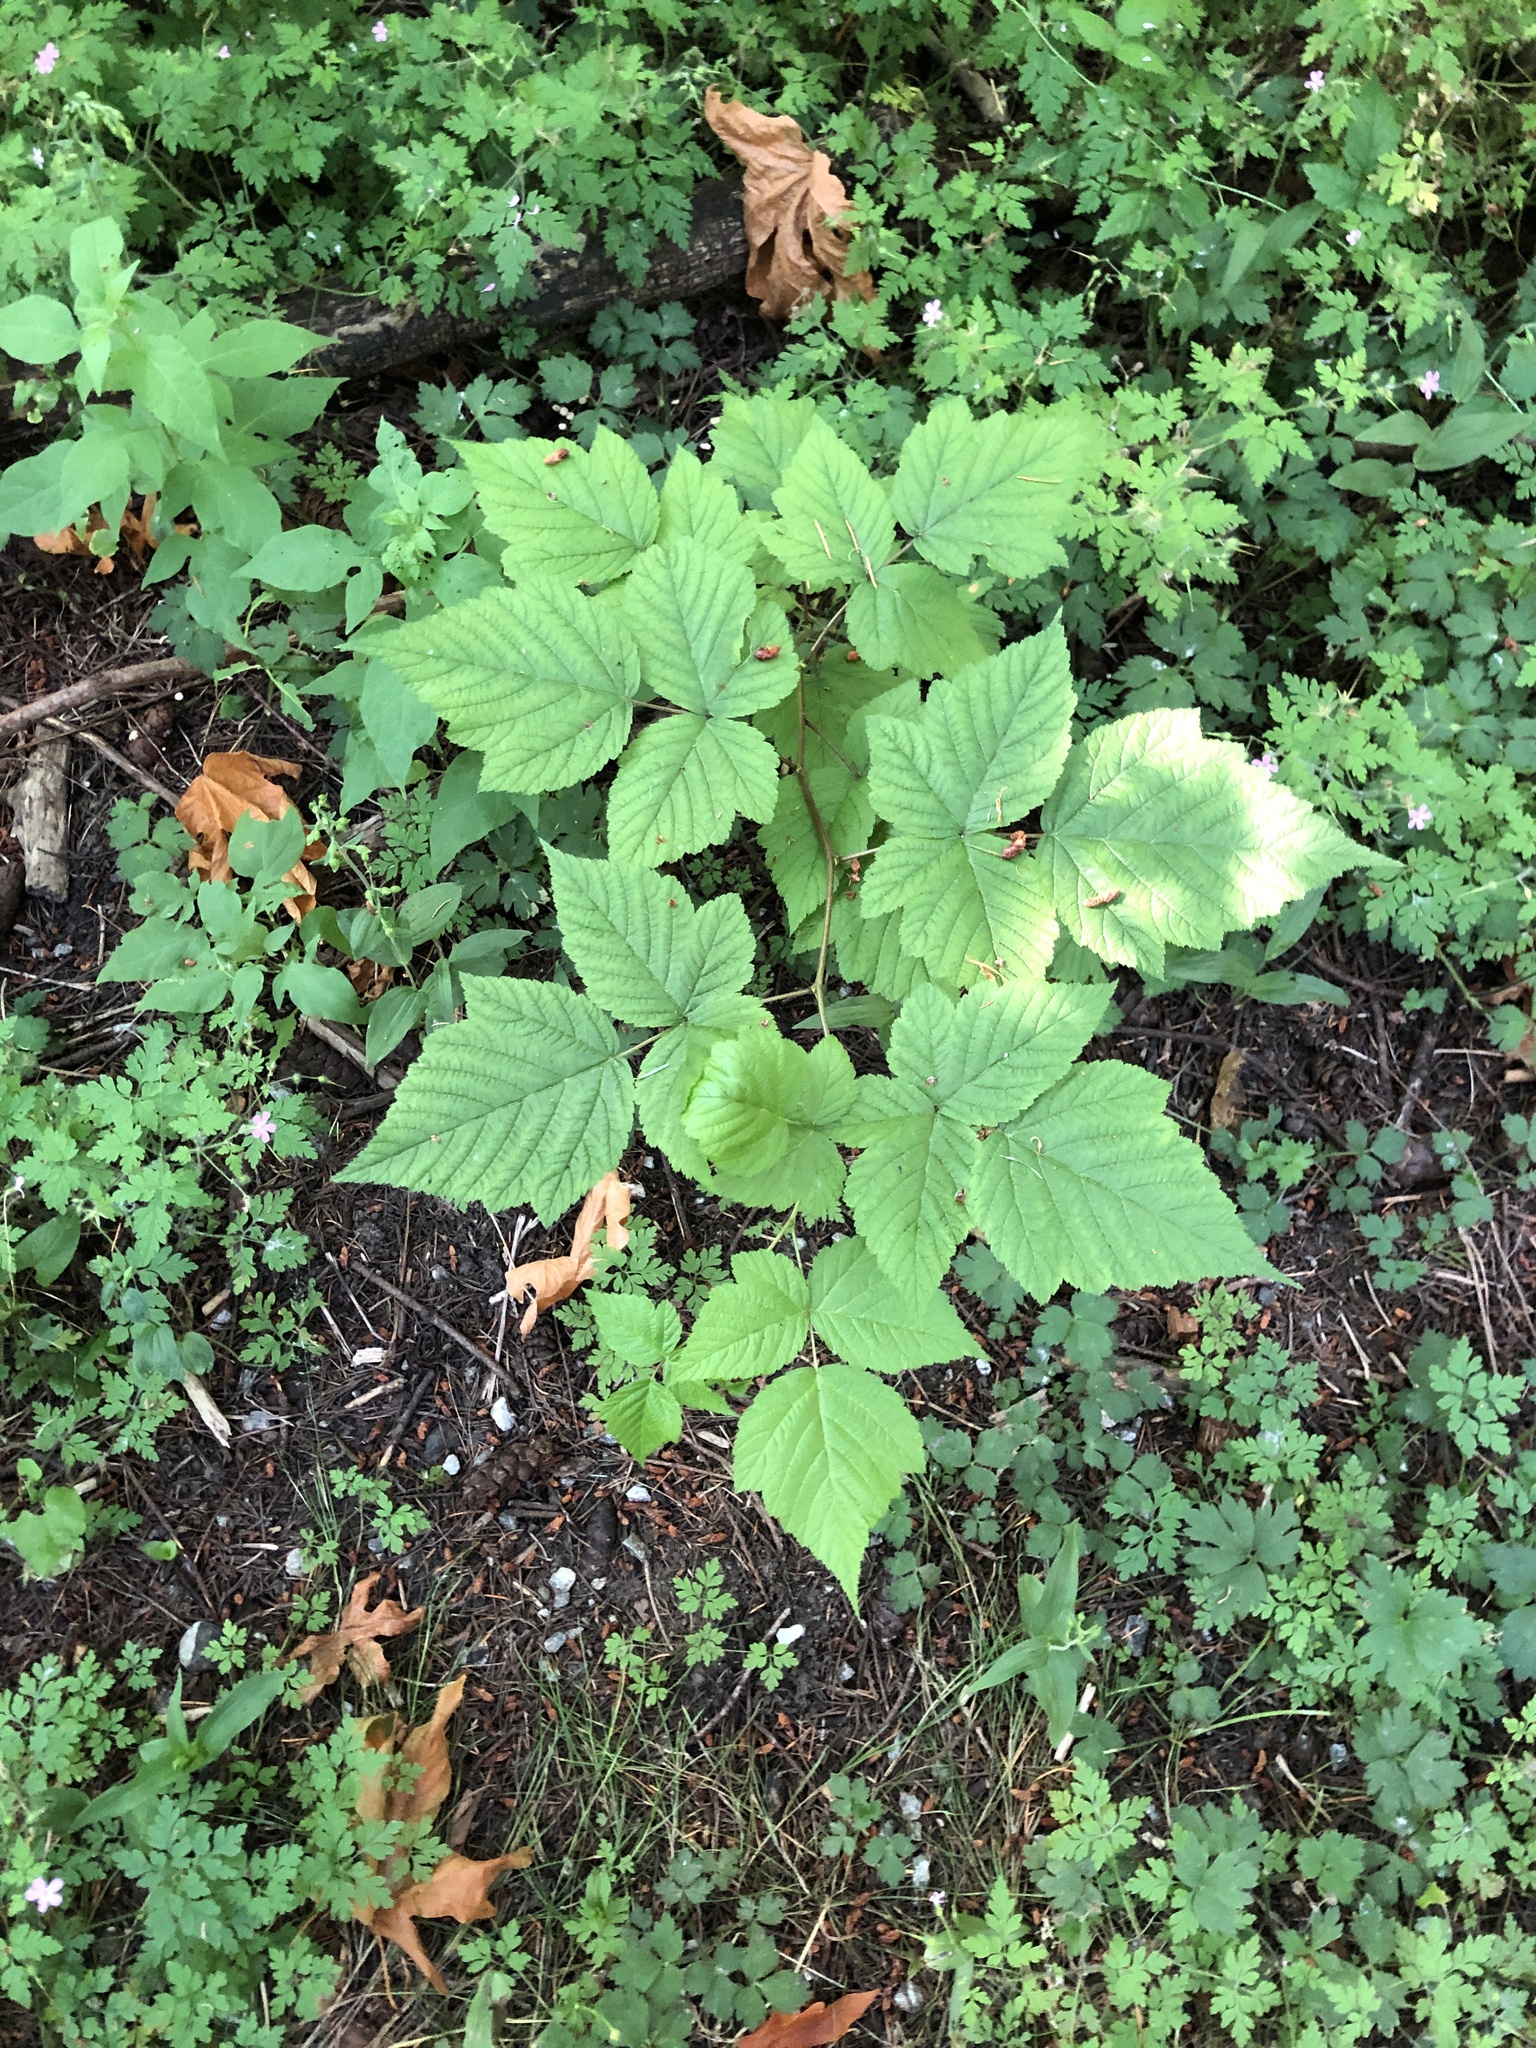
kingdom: Plantae
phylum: Tracheophyta
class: Magnoliopsida
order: Rosales
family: Rosaceae
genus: Rubus
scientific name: Rubus spectabilis
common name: Salmonberry
